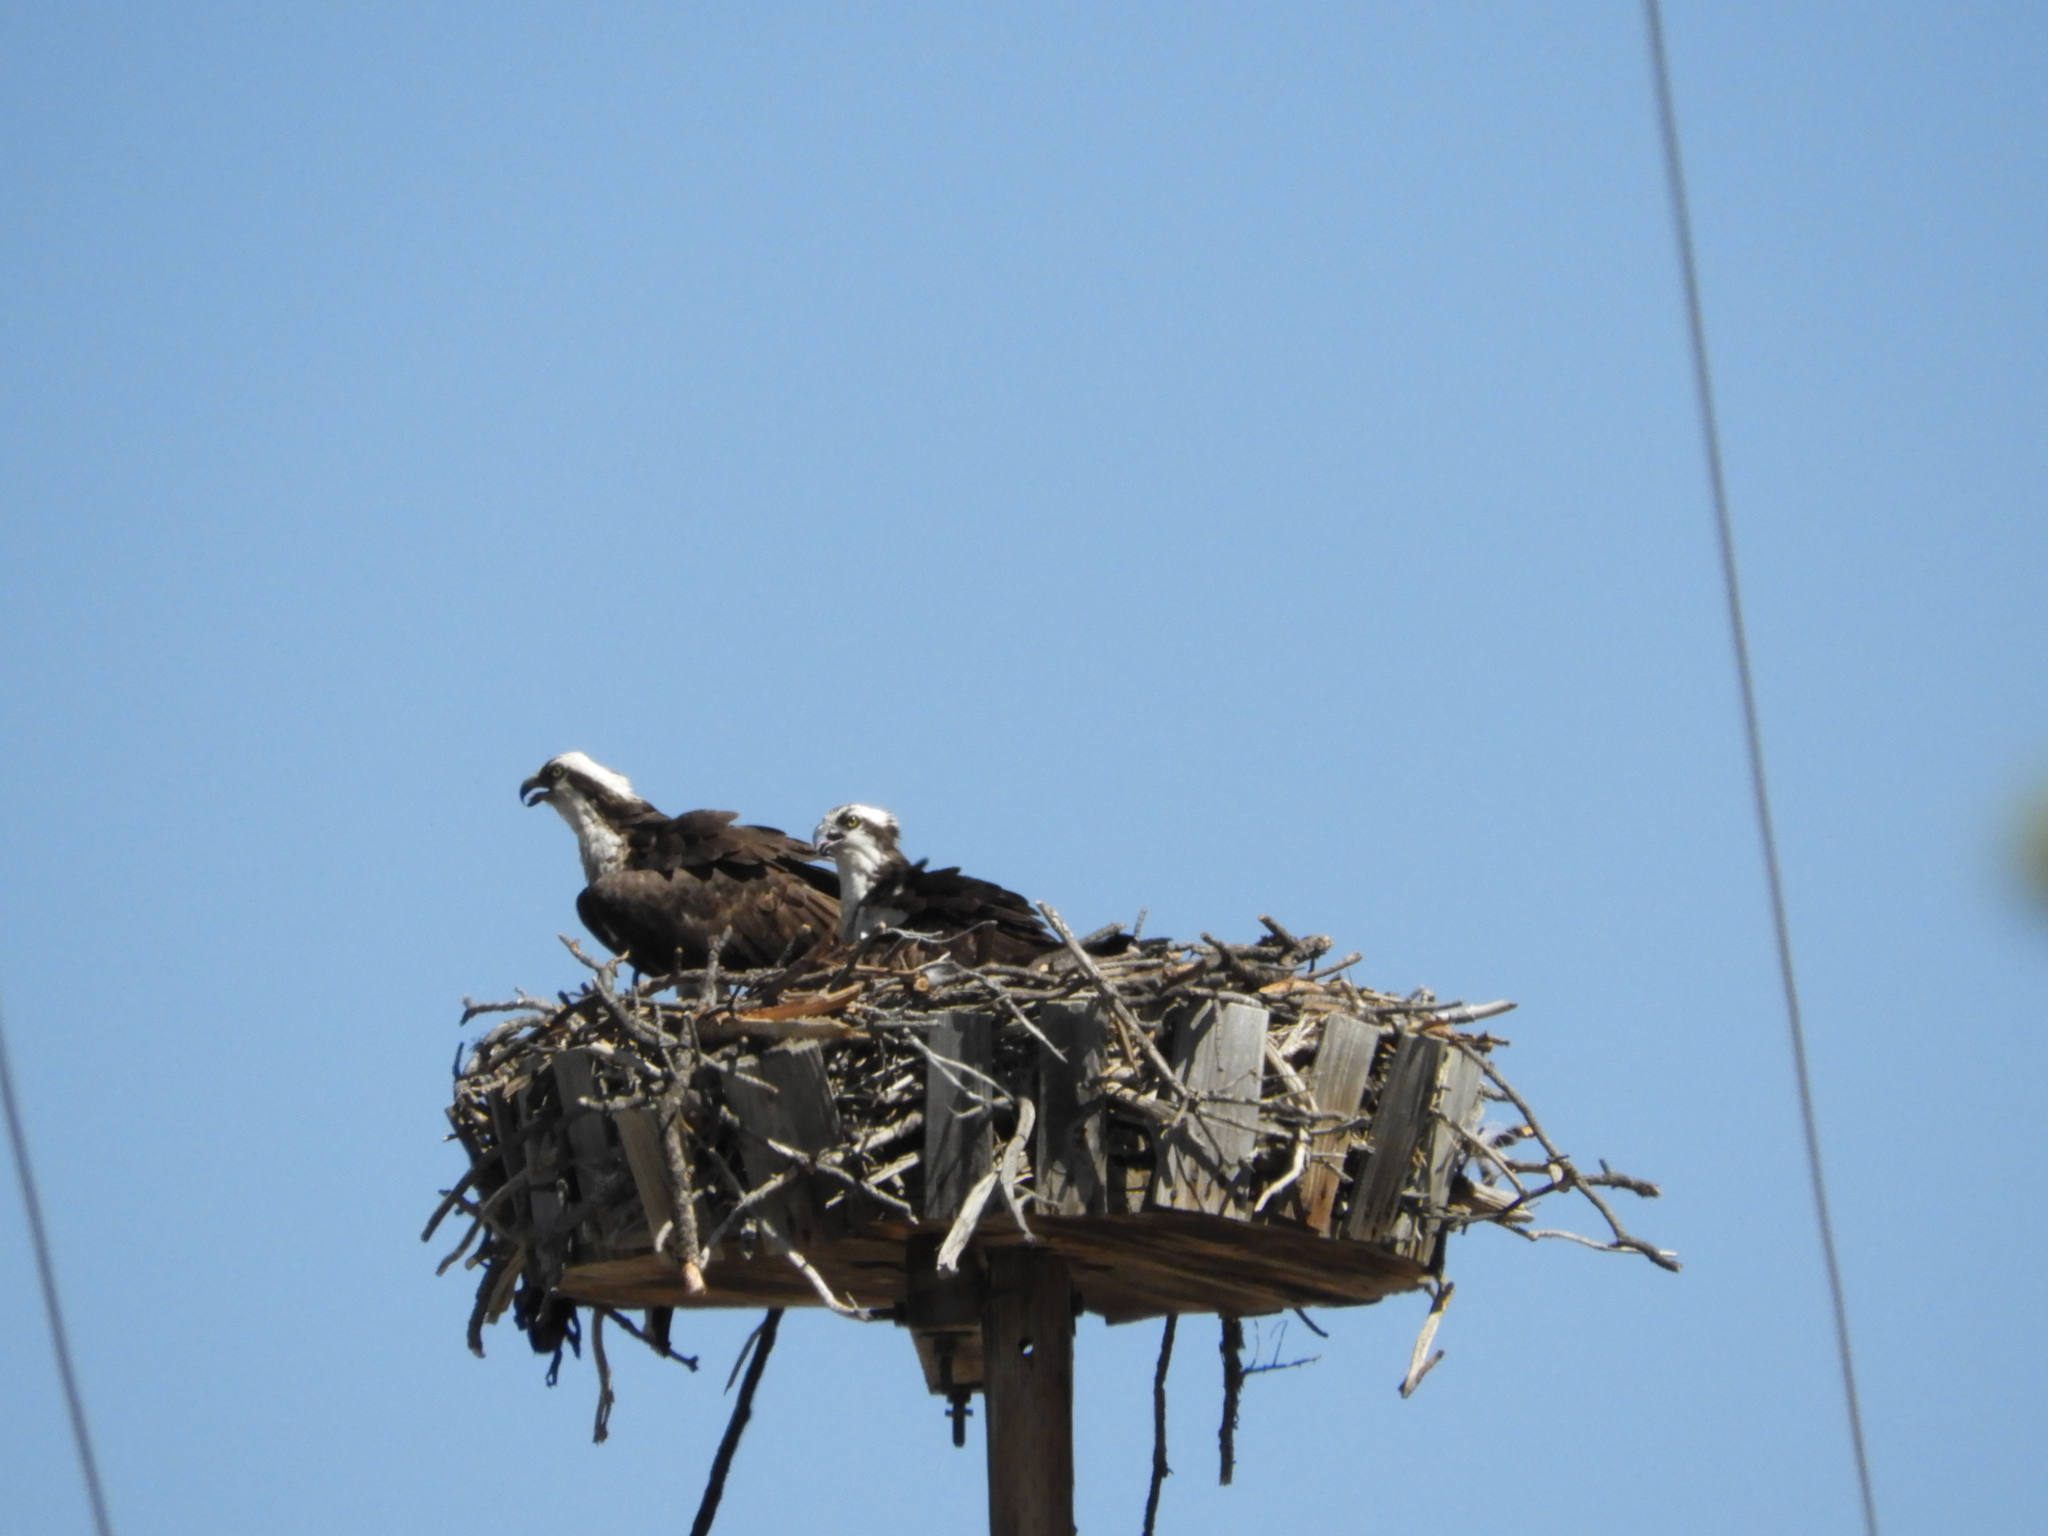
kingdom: Animalia
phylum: Chordata
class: Aves
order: Accipitriformes
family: Pandionidae
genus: Pandion
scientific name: Pandion haliaetus
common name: Osprey
